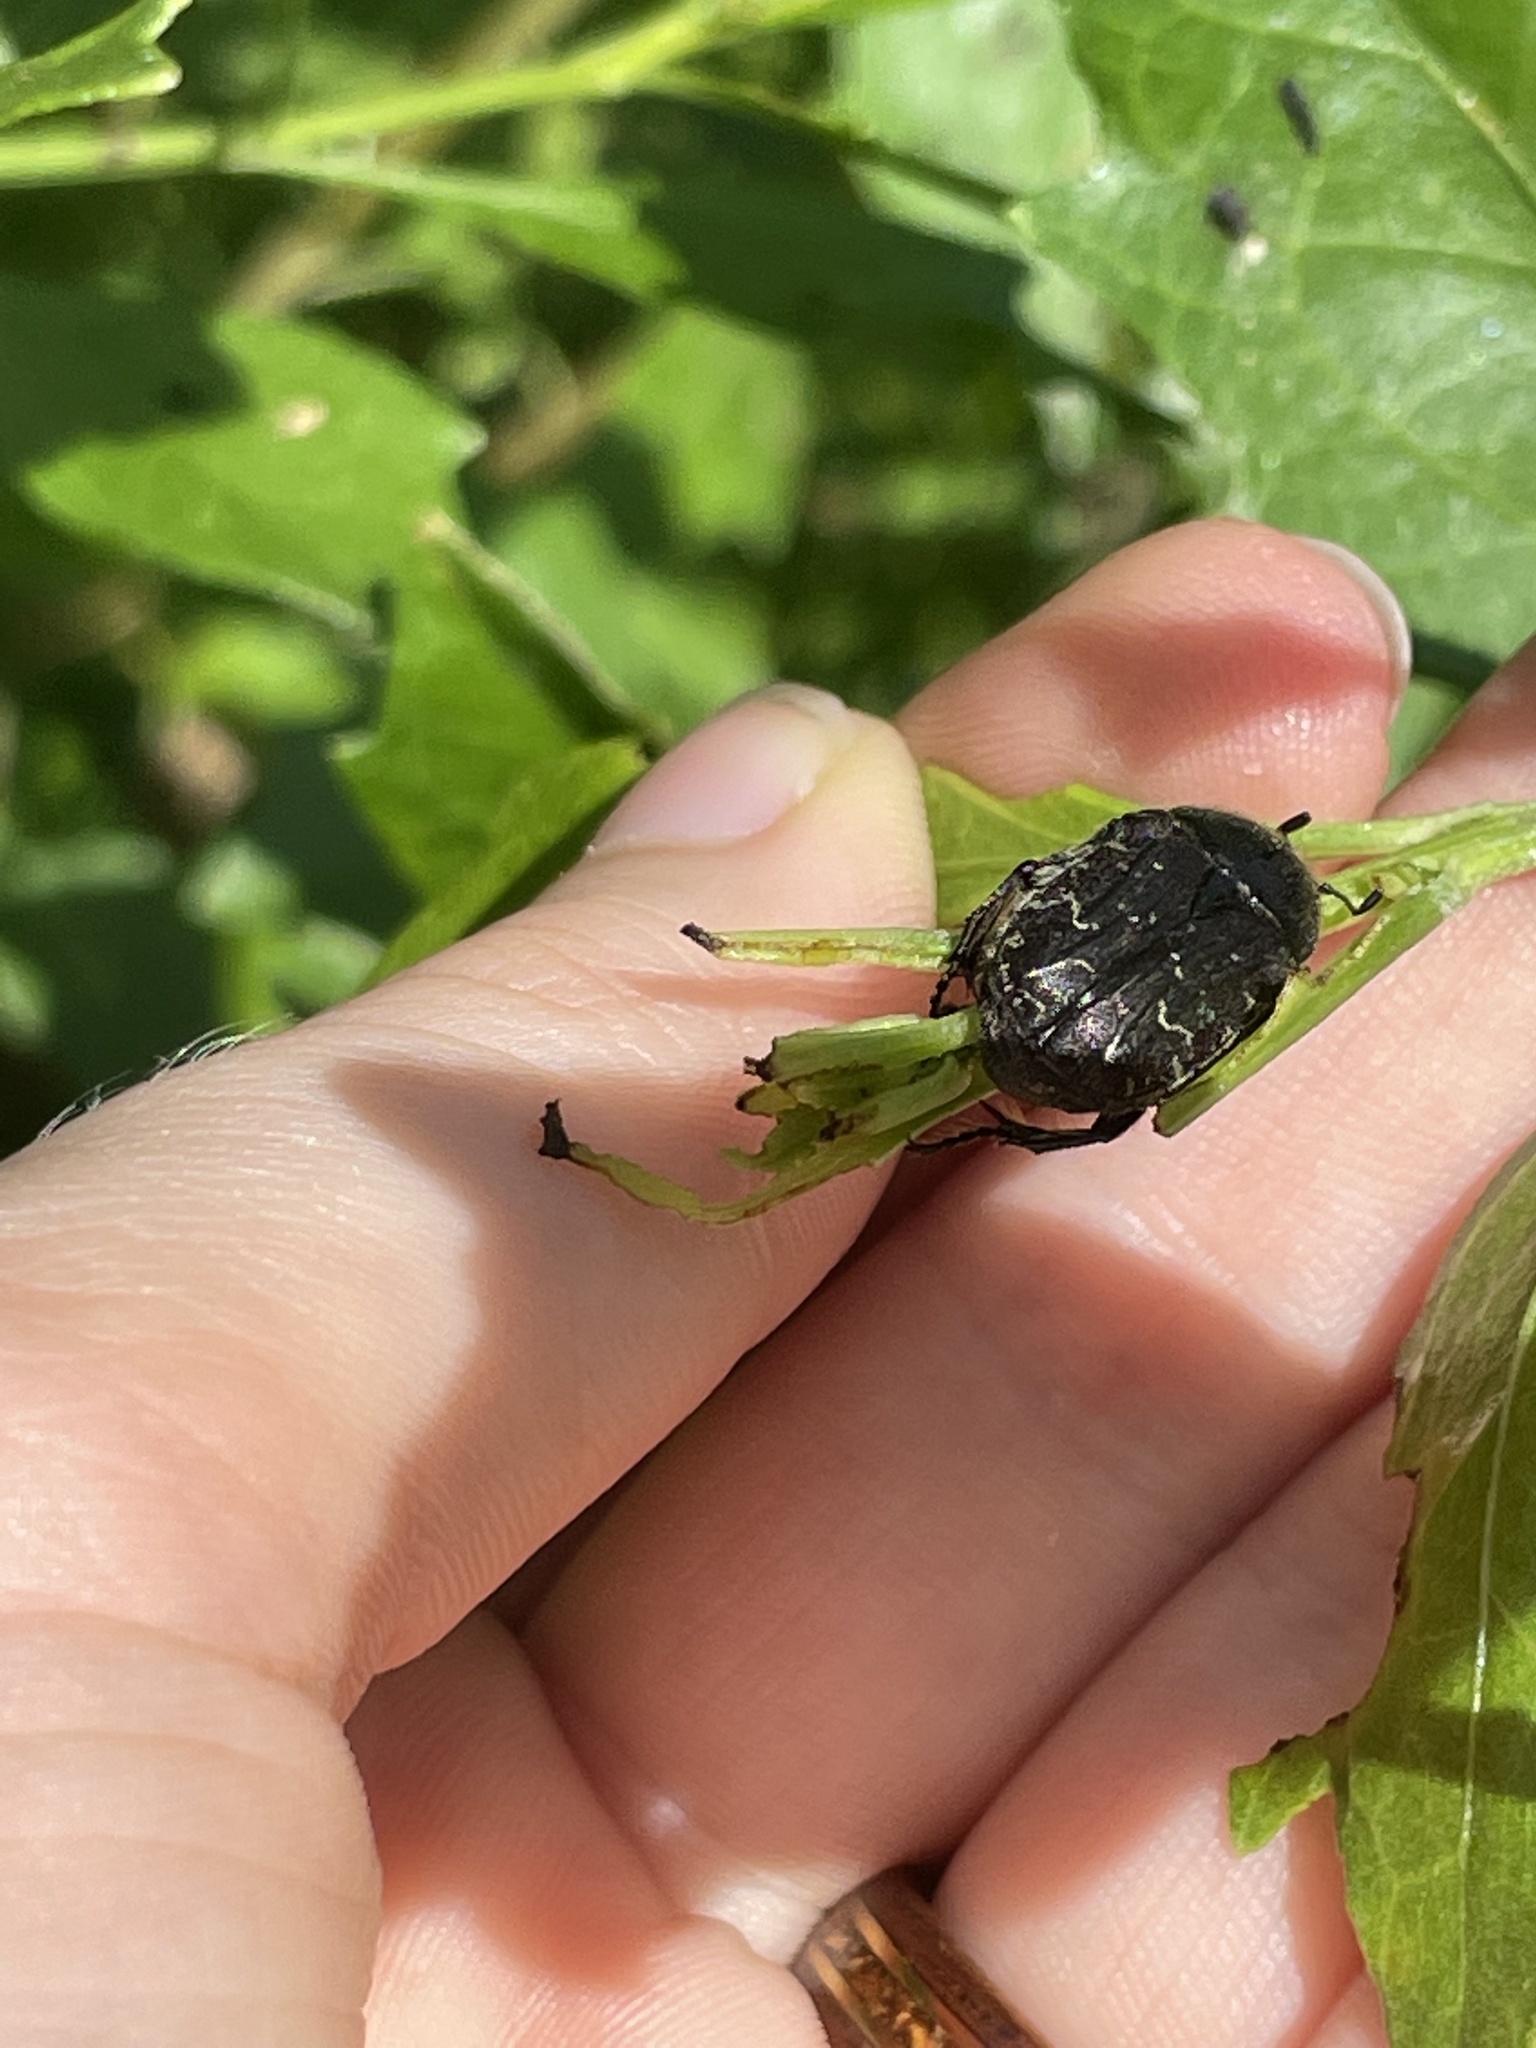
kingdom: Animalia
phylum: Arthropoda
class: Insecta
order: Coleoptera
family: Scarabaeidae
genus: Euphoria
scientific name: Euphoria sepulcralis
